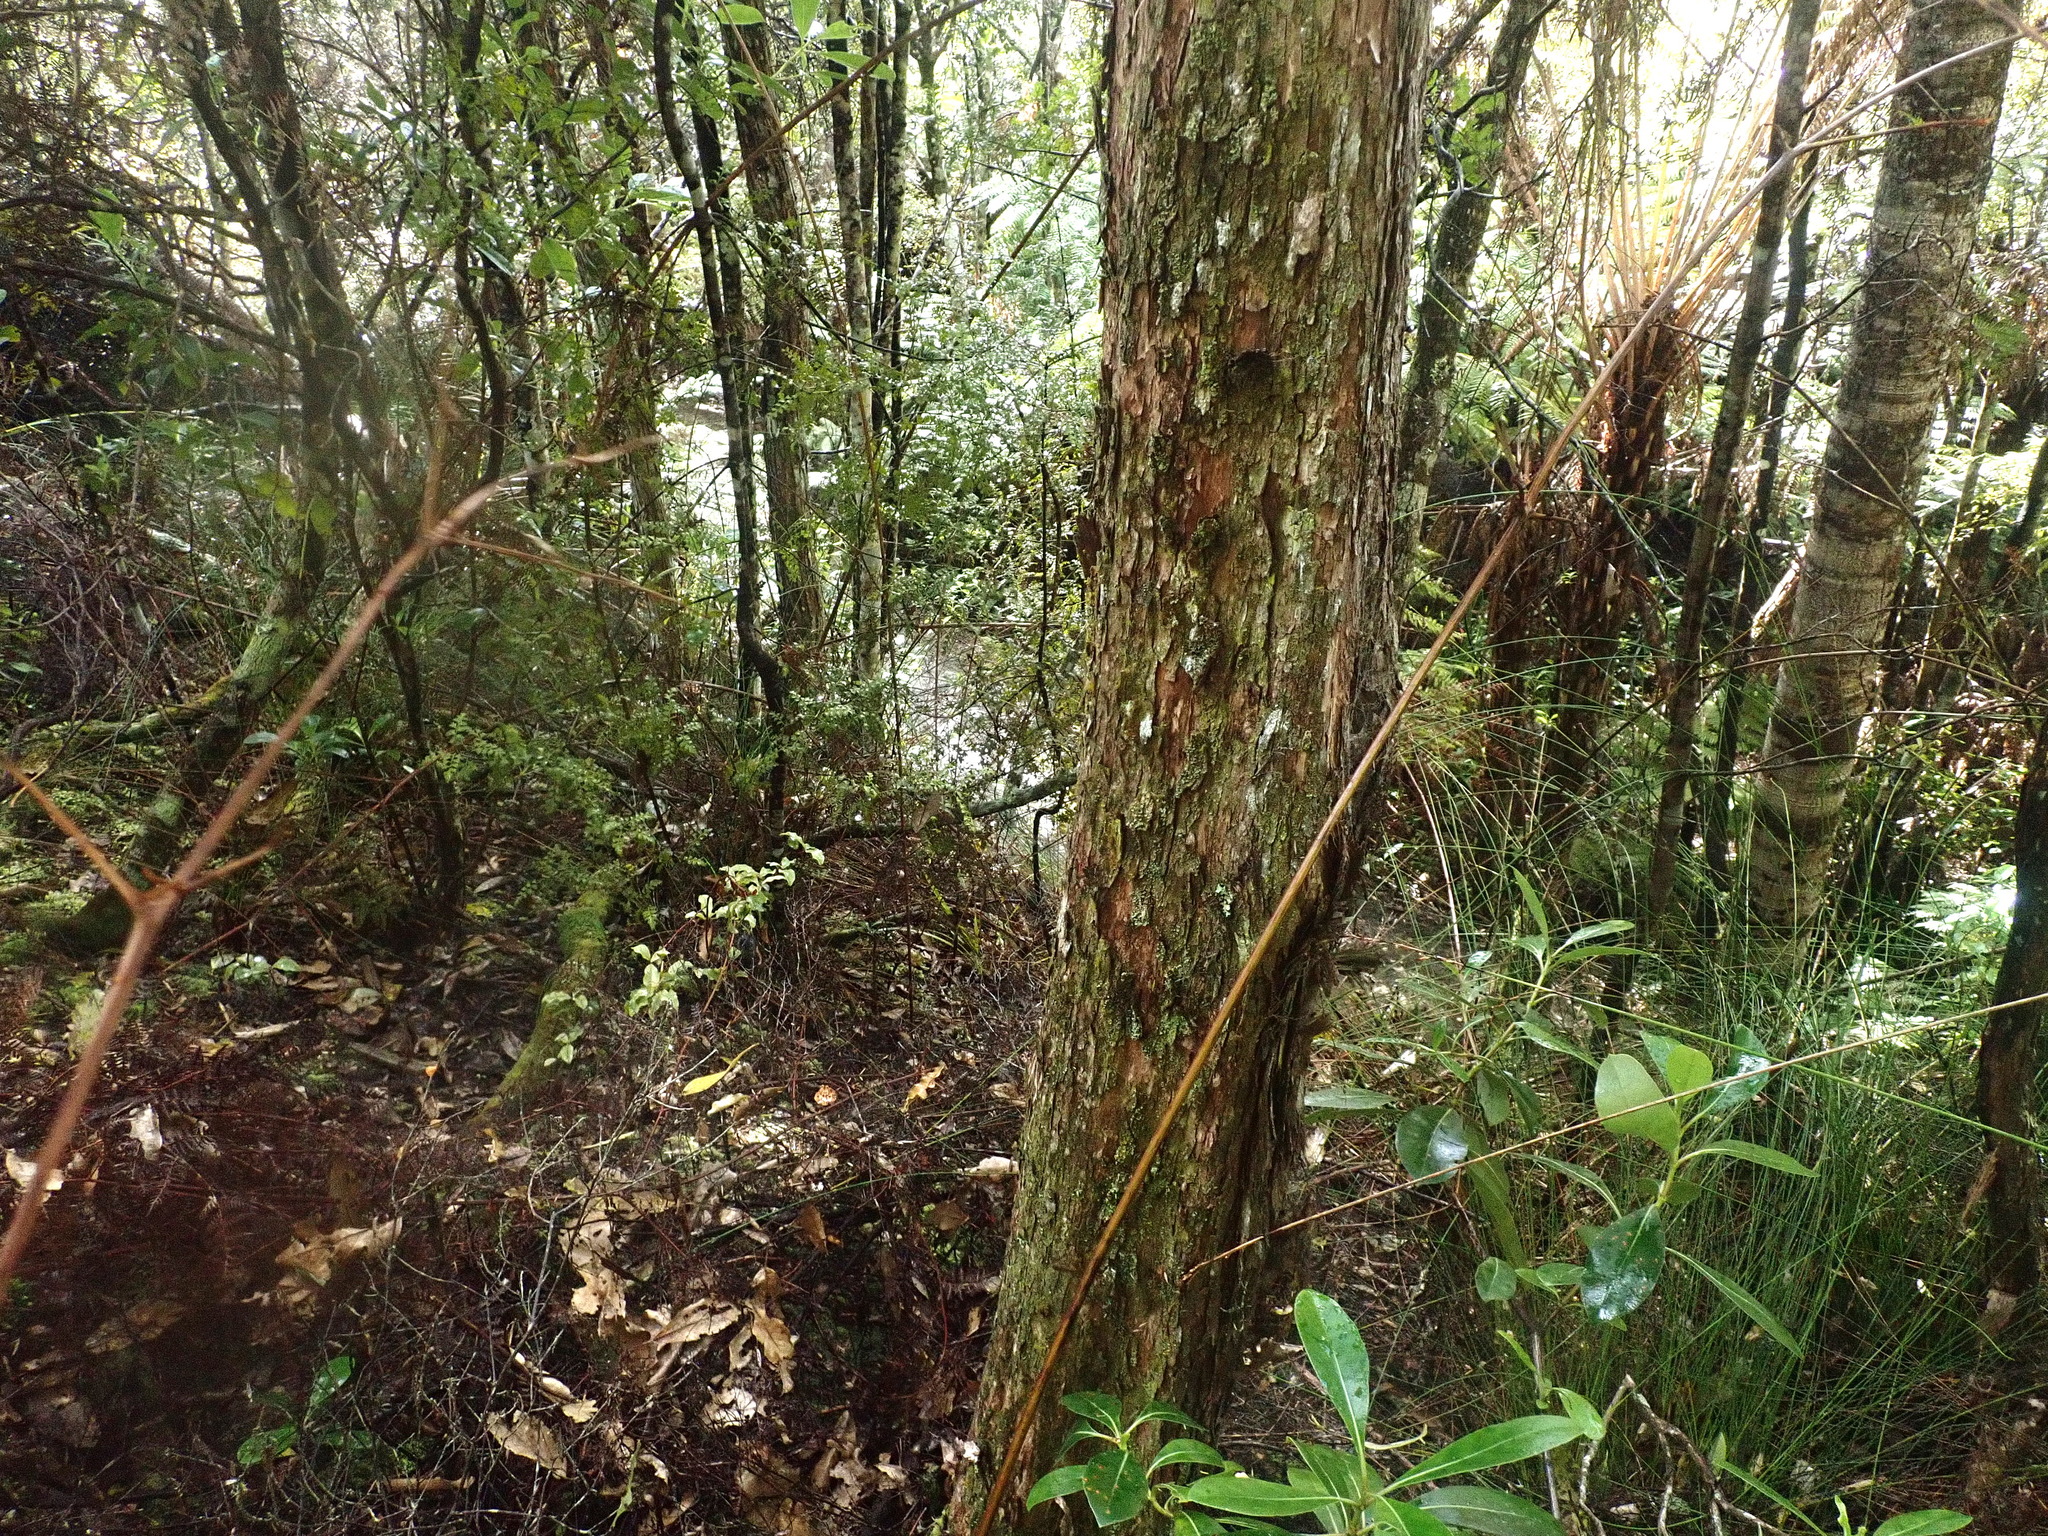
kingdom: Plantae
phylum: Tracheophyta
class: Pinopsida
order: Pinales
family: Araucariaceae
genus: Agathis
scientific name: Agathis australis
